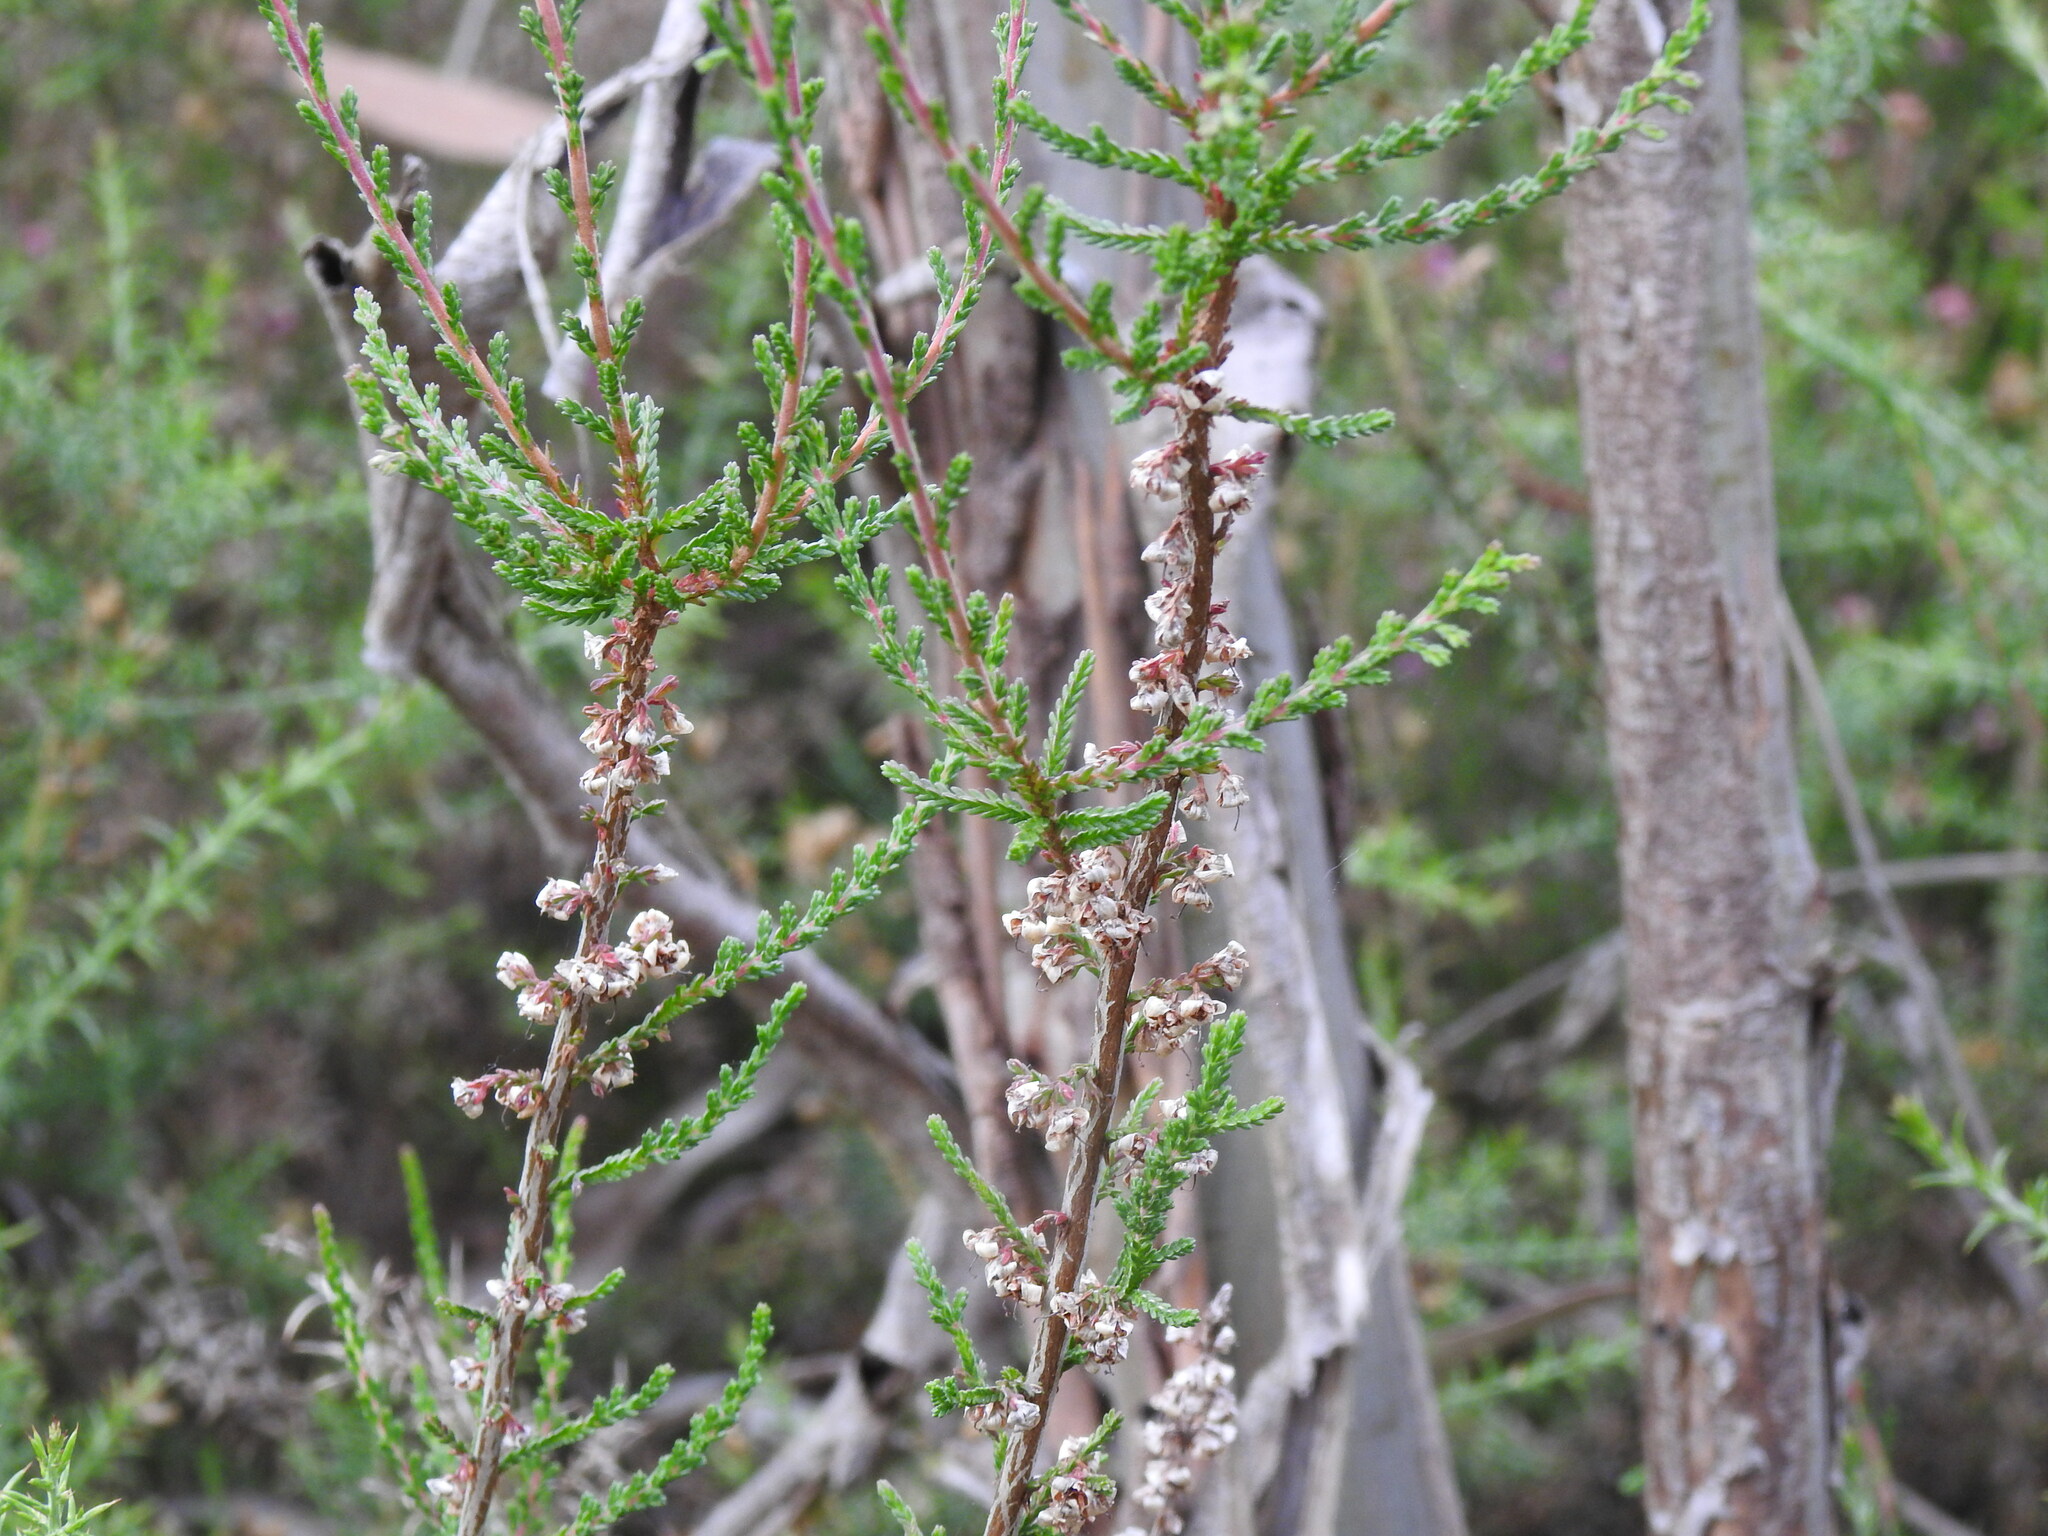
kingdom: Plantae
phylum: Tracheophyta
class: Magnoliopsida
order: Ericales
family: Ericaceae
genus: Calluna
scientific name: Calluna vulgaris
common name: Heather
